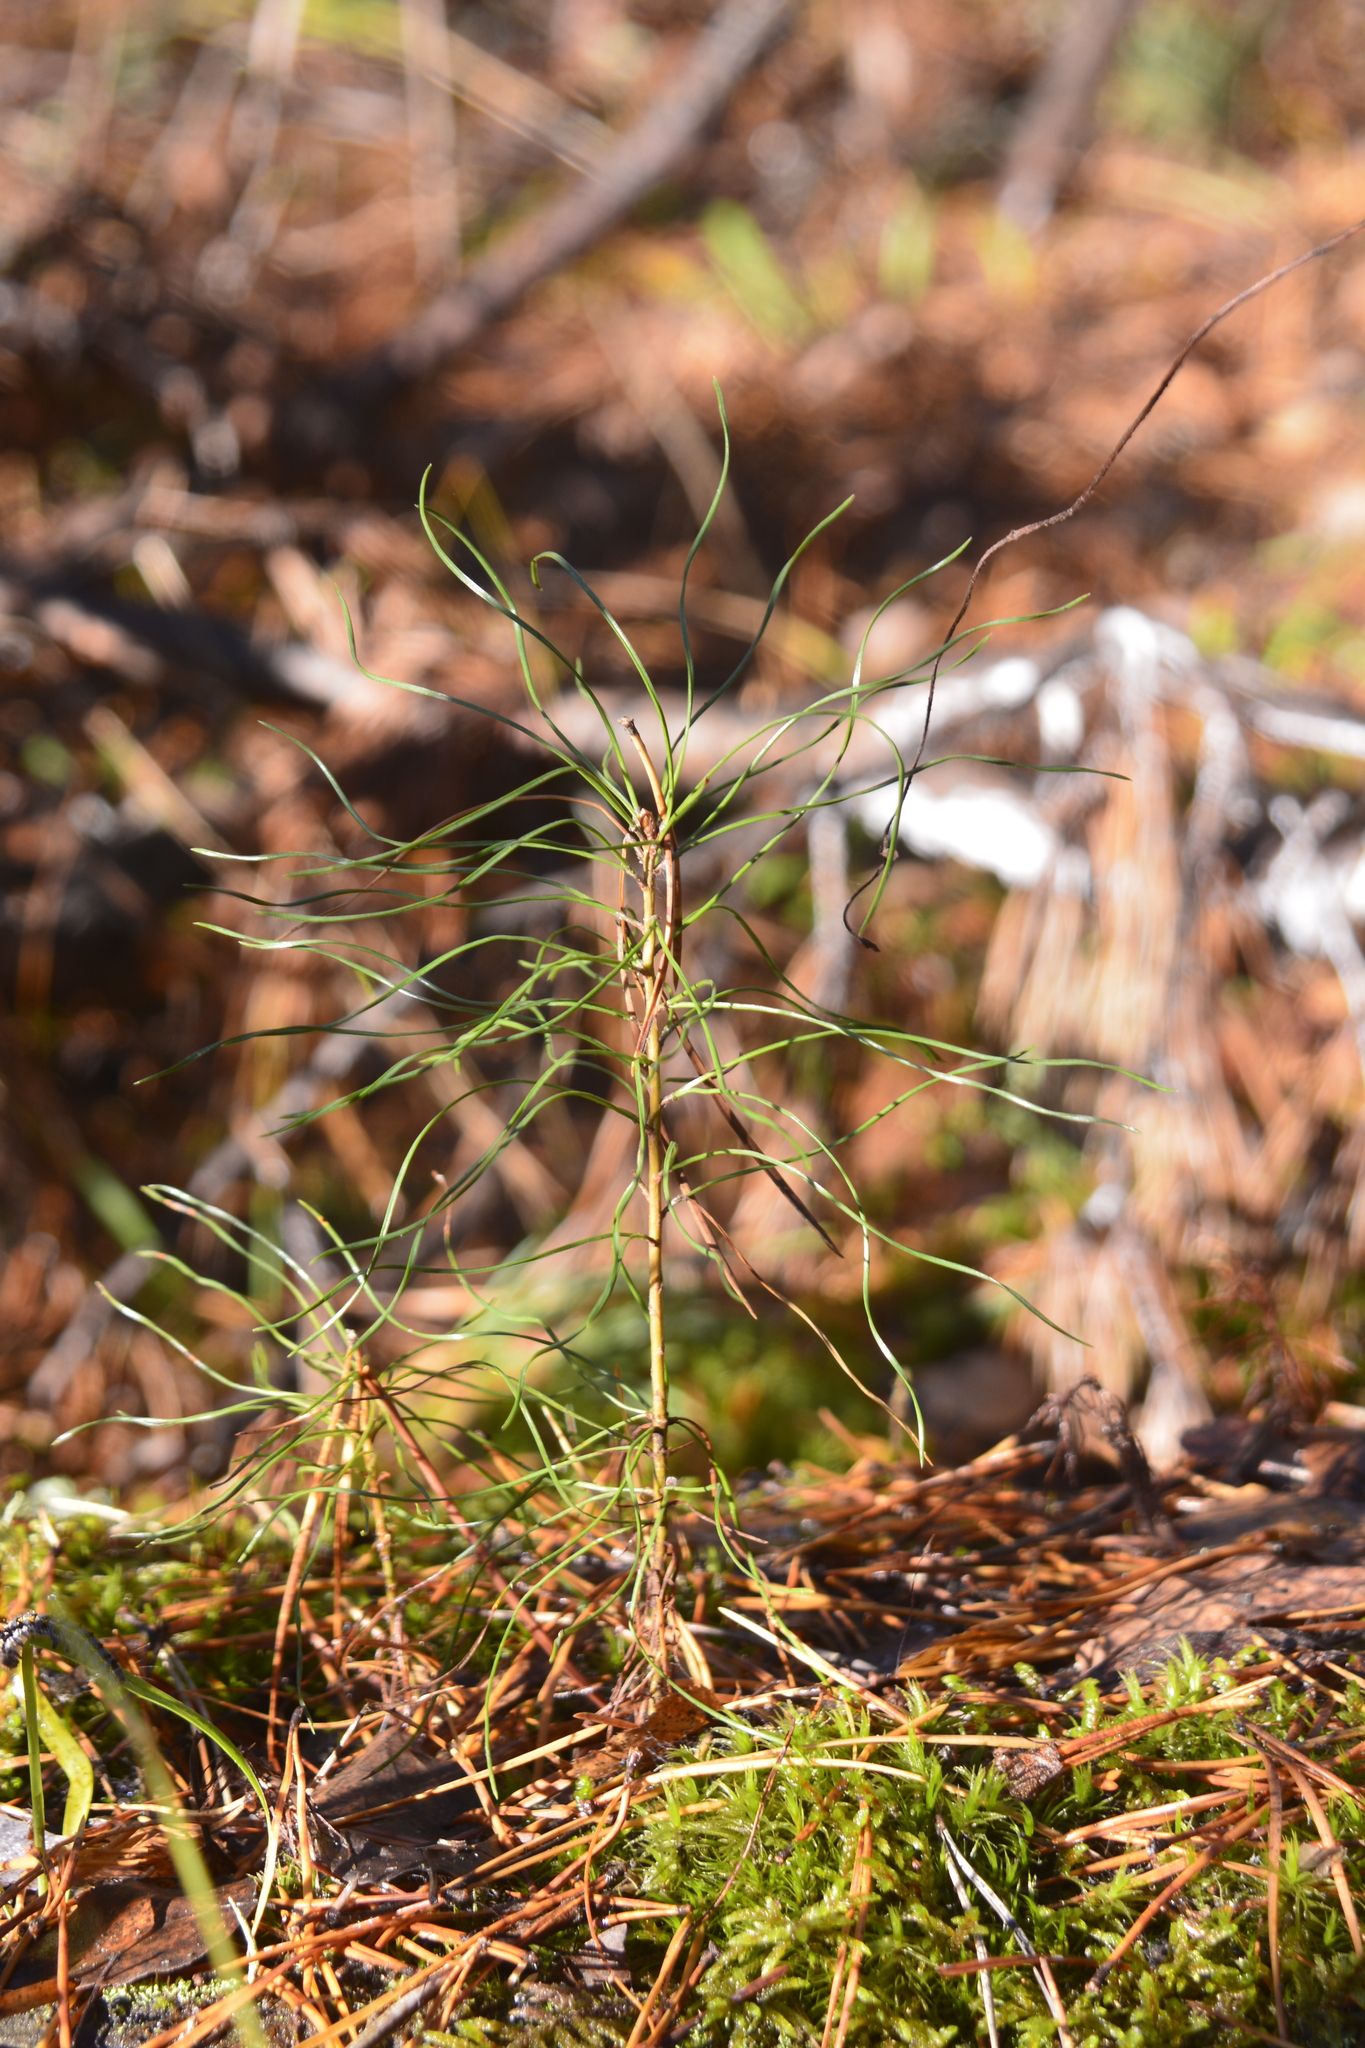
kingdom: Plantae
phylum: Tracheophyta
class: Pinopsida
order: Pinales
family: Pinaceae
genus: Pinus
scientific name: Pinus sylvestris
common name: Scots pine
